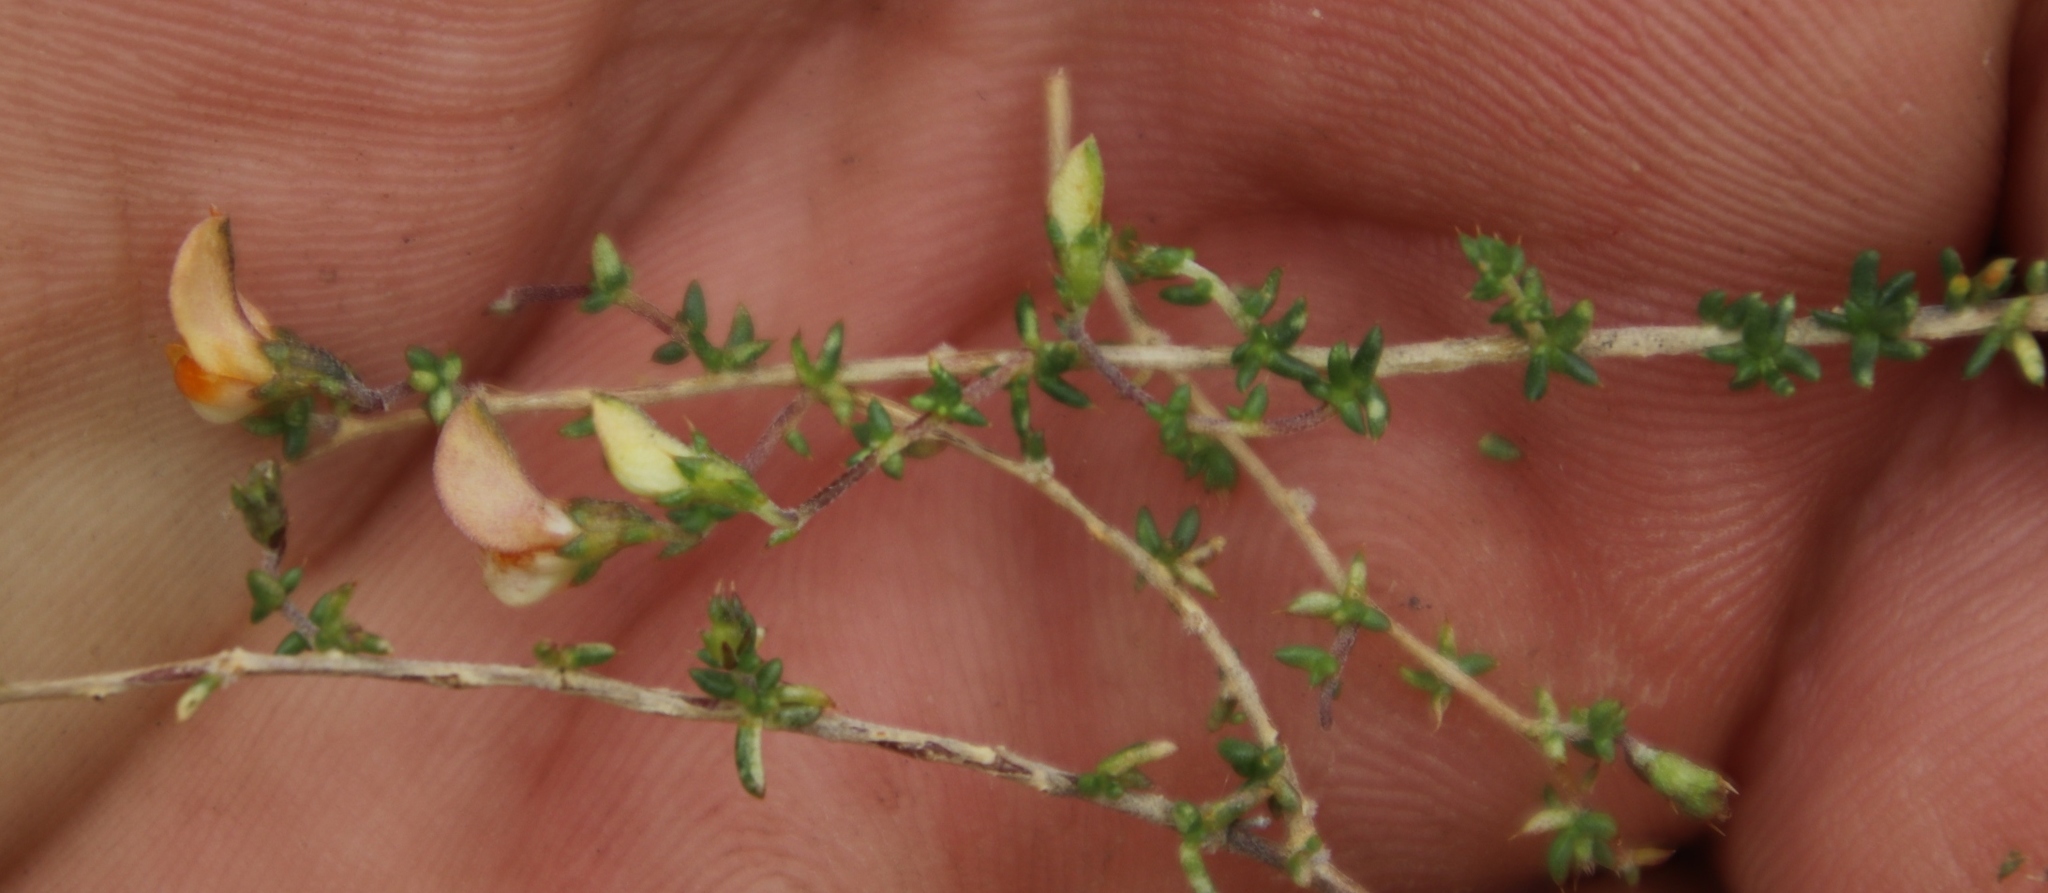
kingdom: Plantae
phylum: Tracheophyta
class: Magnoliopsida
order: Fabales
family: Fabaceae
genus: Aspalathus
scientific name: Aspalathus divaricata
